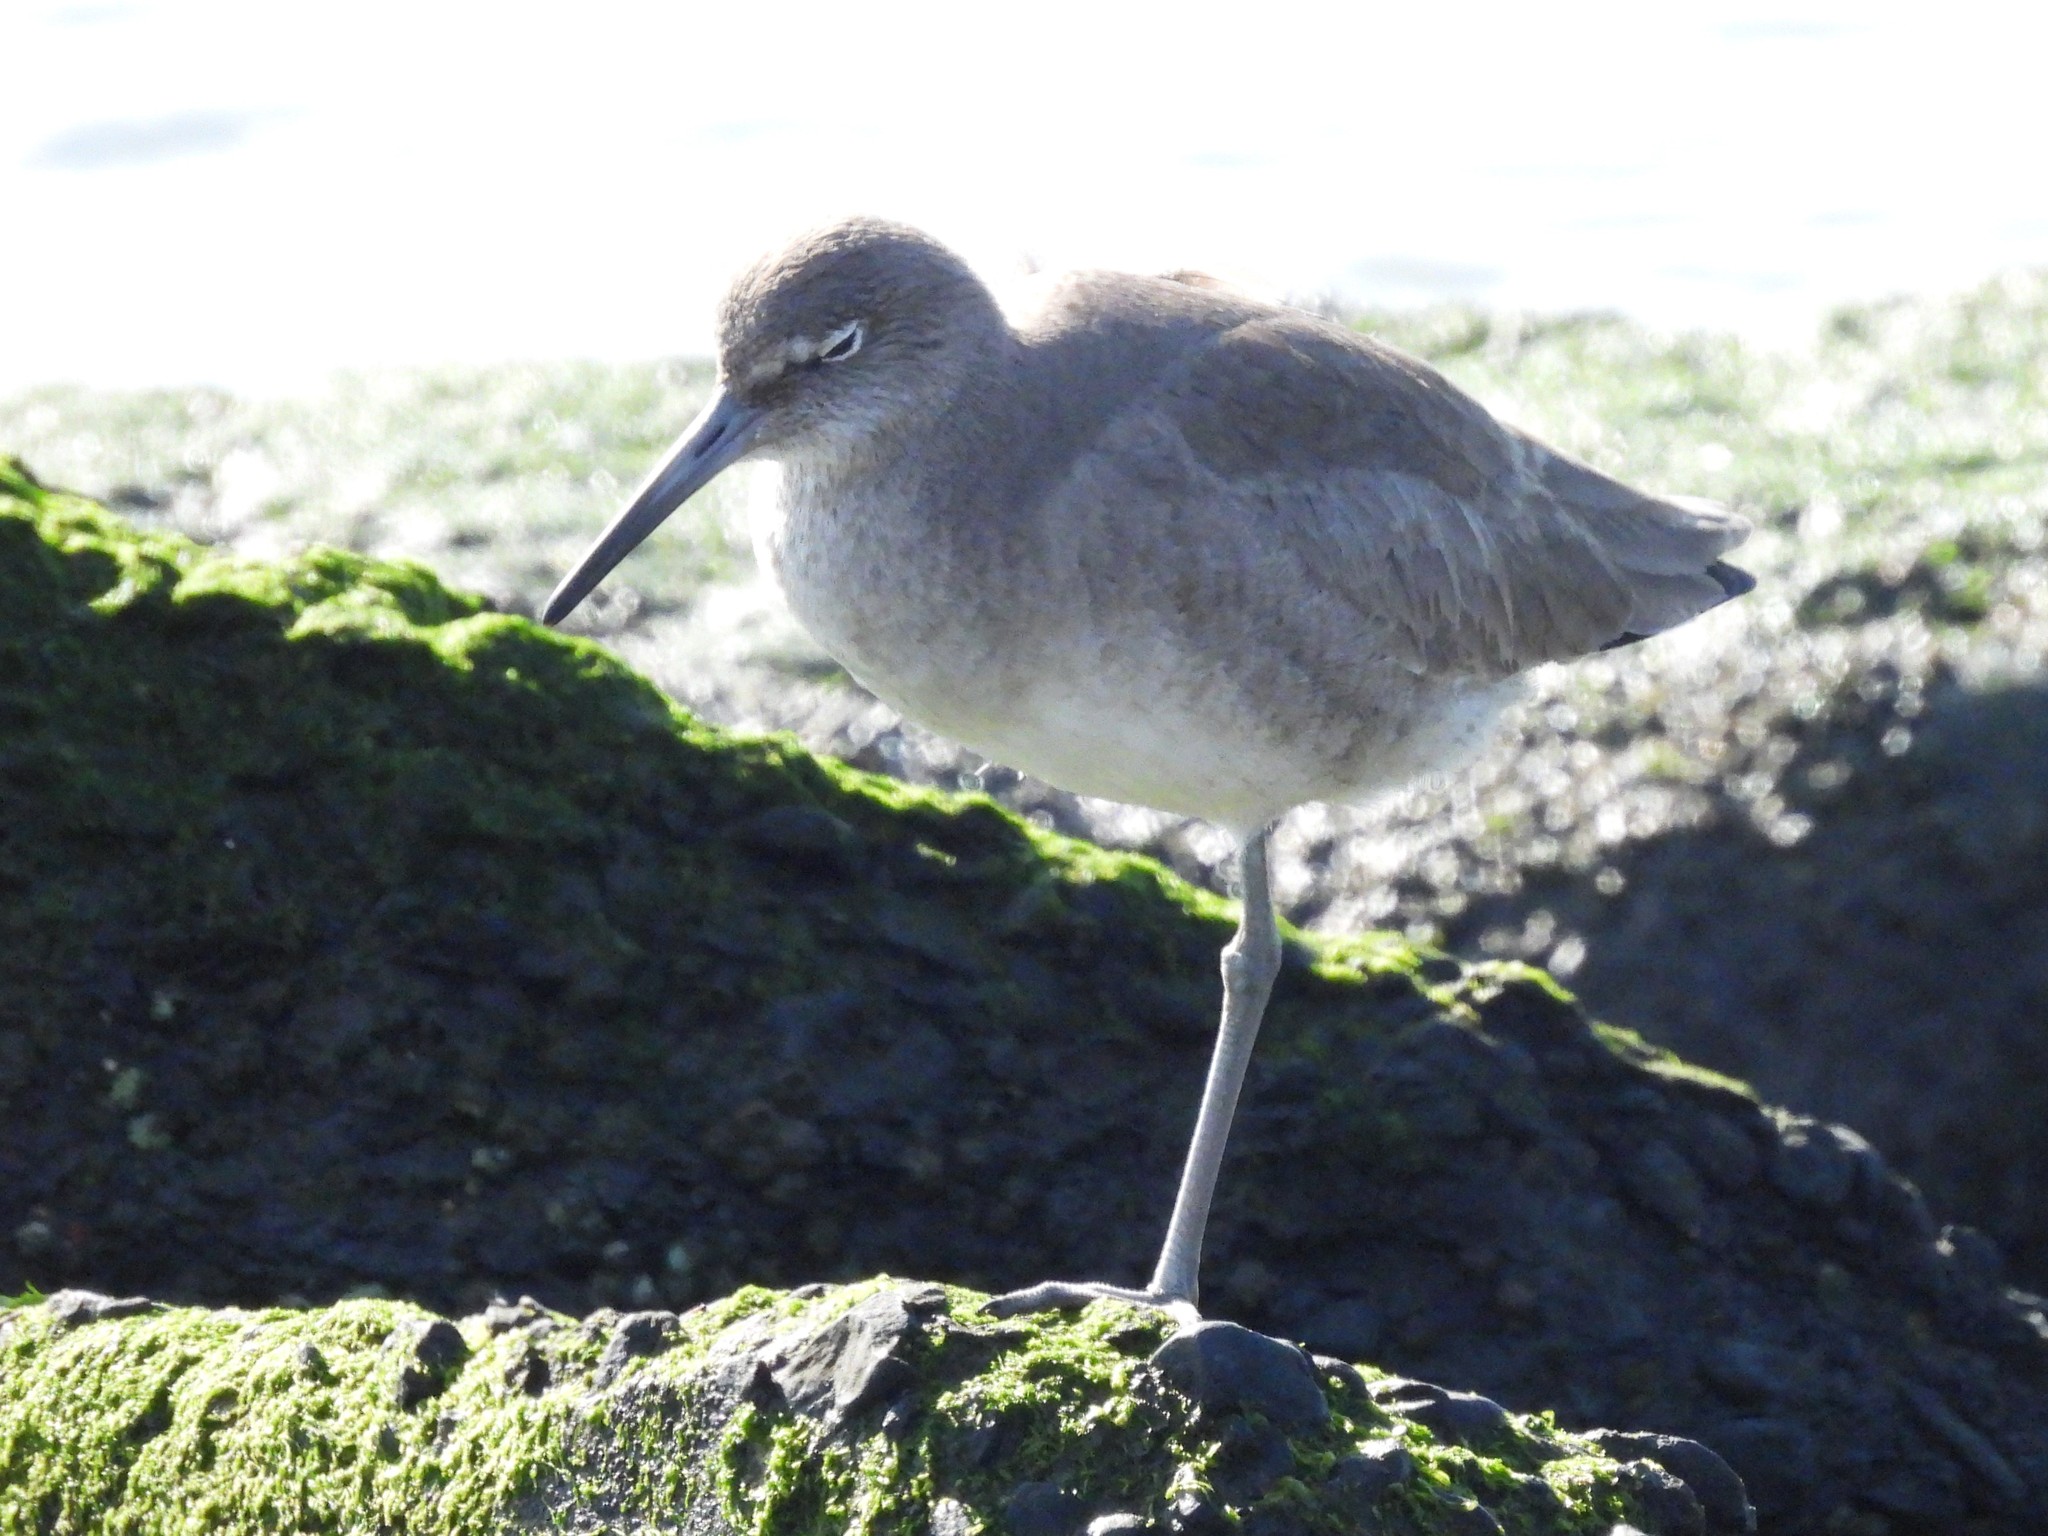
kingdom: Animalia
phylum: Chordata
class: Aves
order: Charadriiformes
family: Scolopacidae
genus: Tringa
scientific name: Tringa semipalmata
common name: Willet
